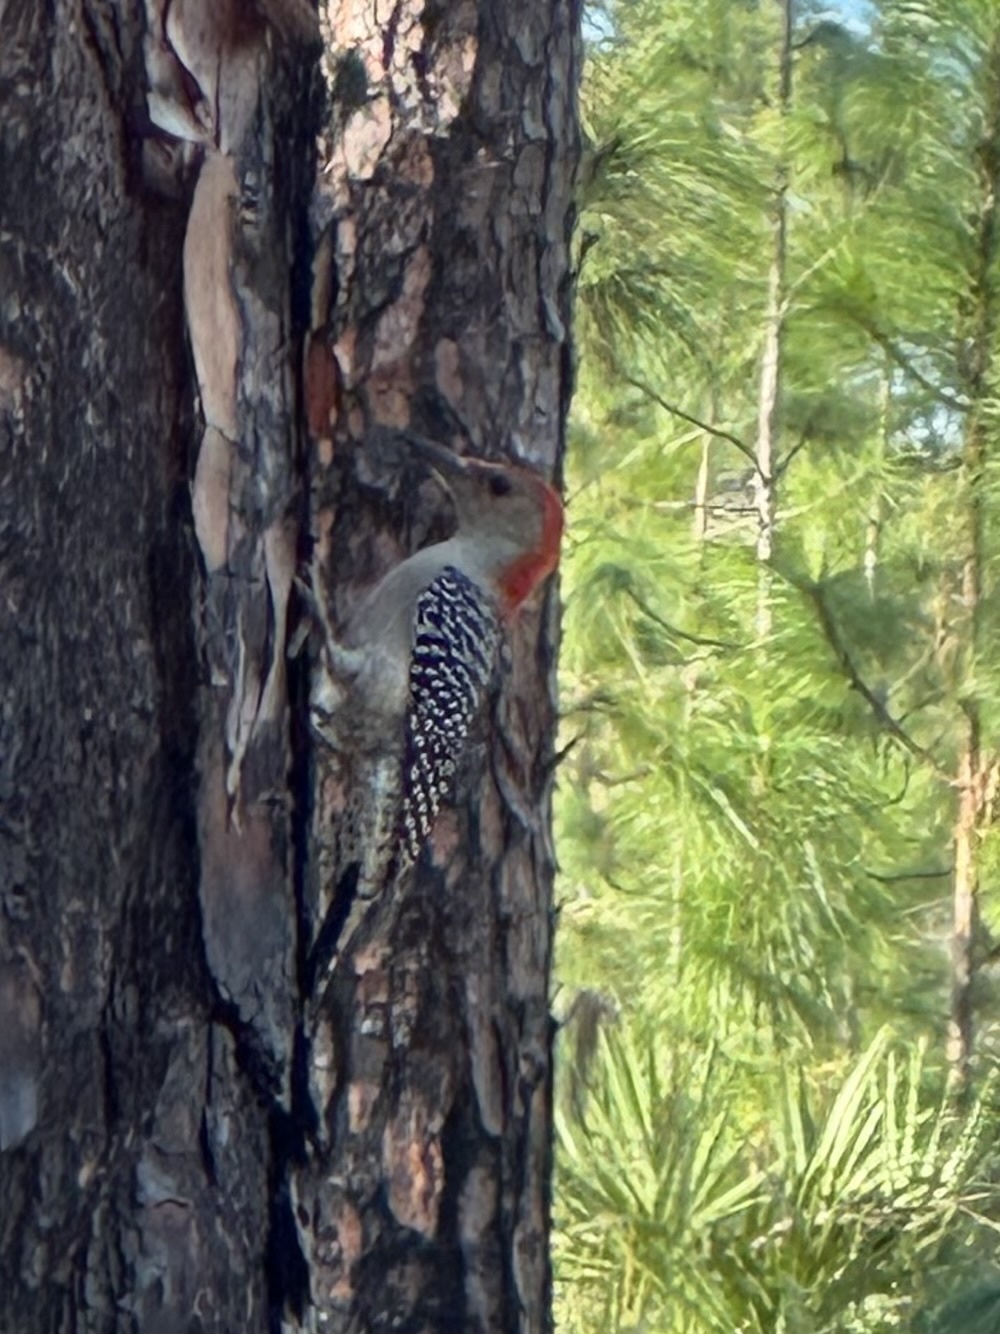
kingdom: Animalia
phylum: Chordata
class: Aves
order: Piciformes
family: Picidae
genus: Melanerpes
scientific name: Melanerpes carolinus
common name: Red-bellied woodpecker
